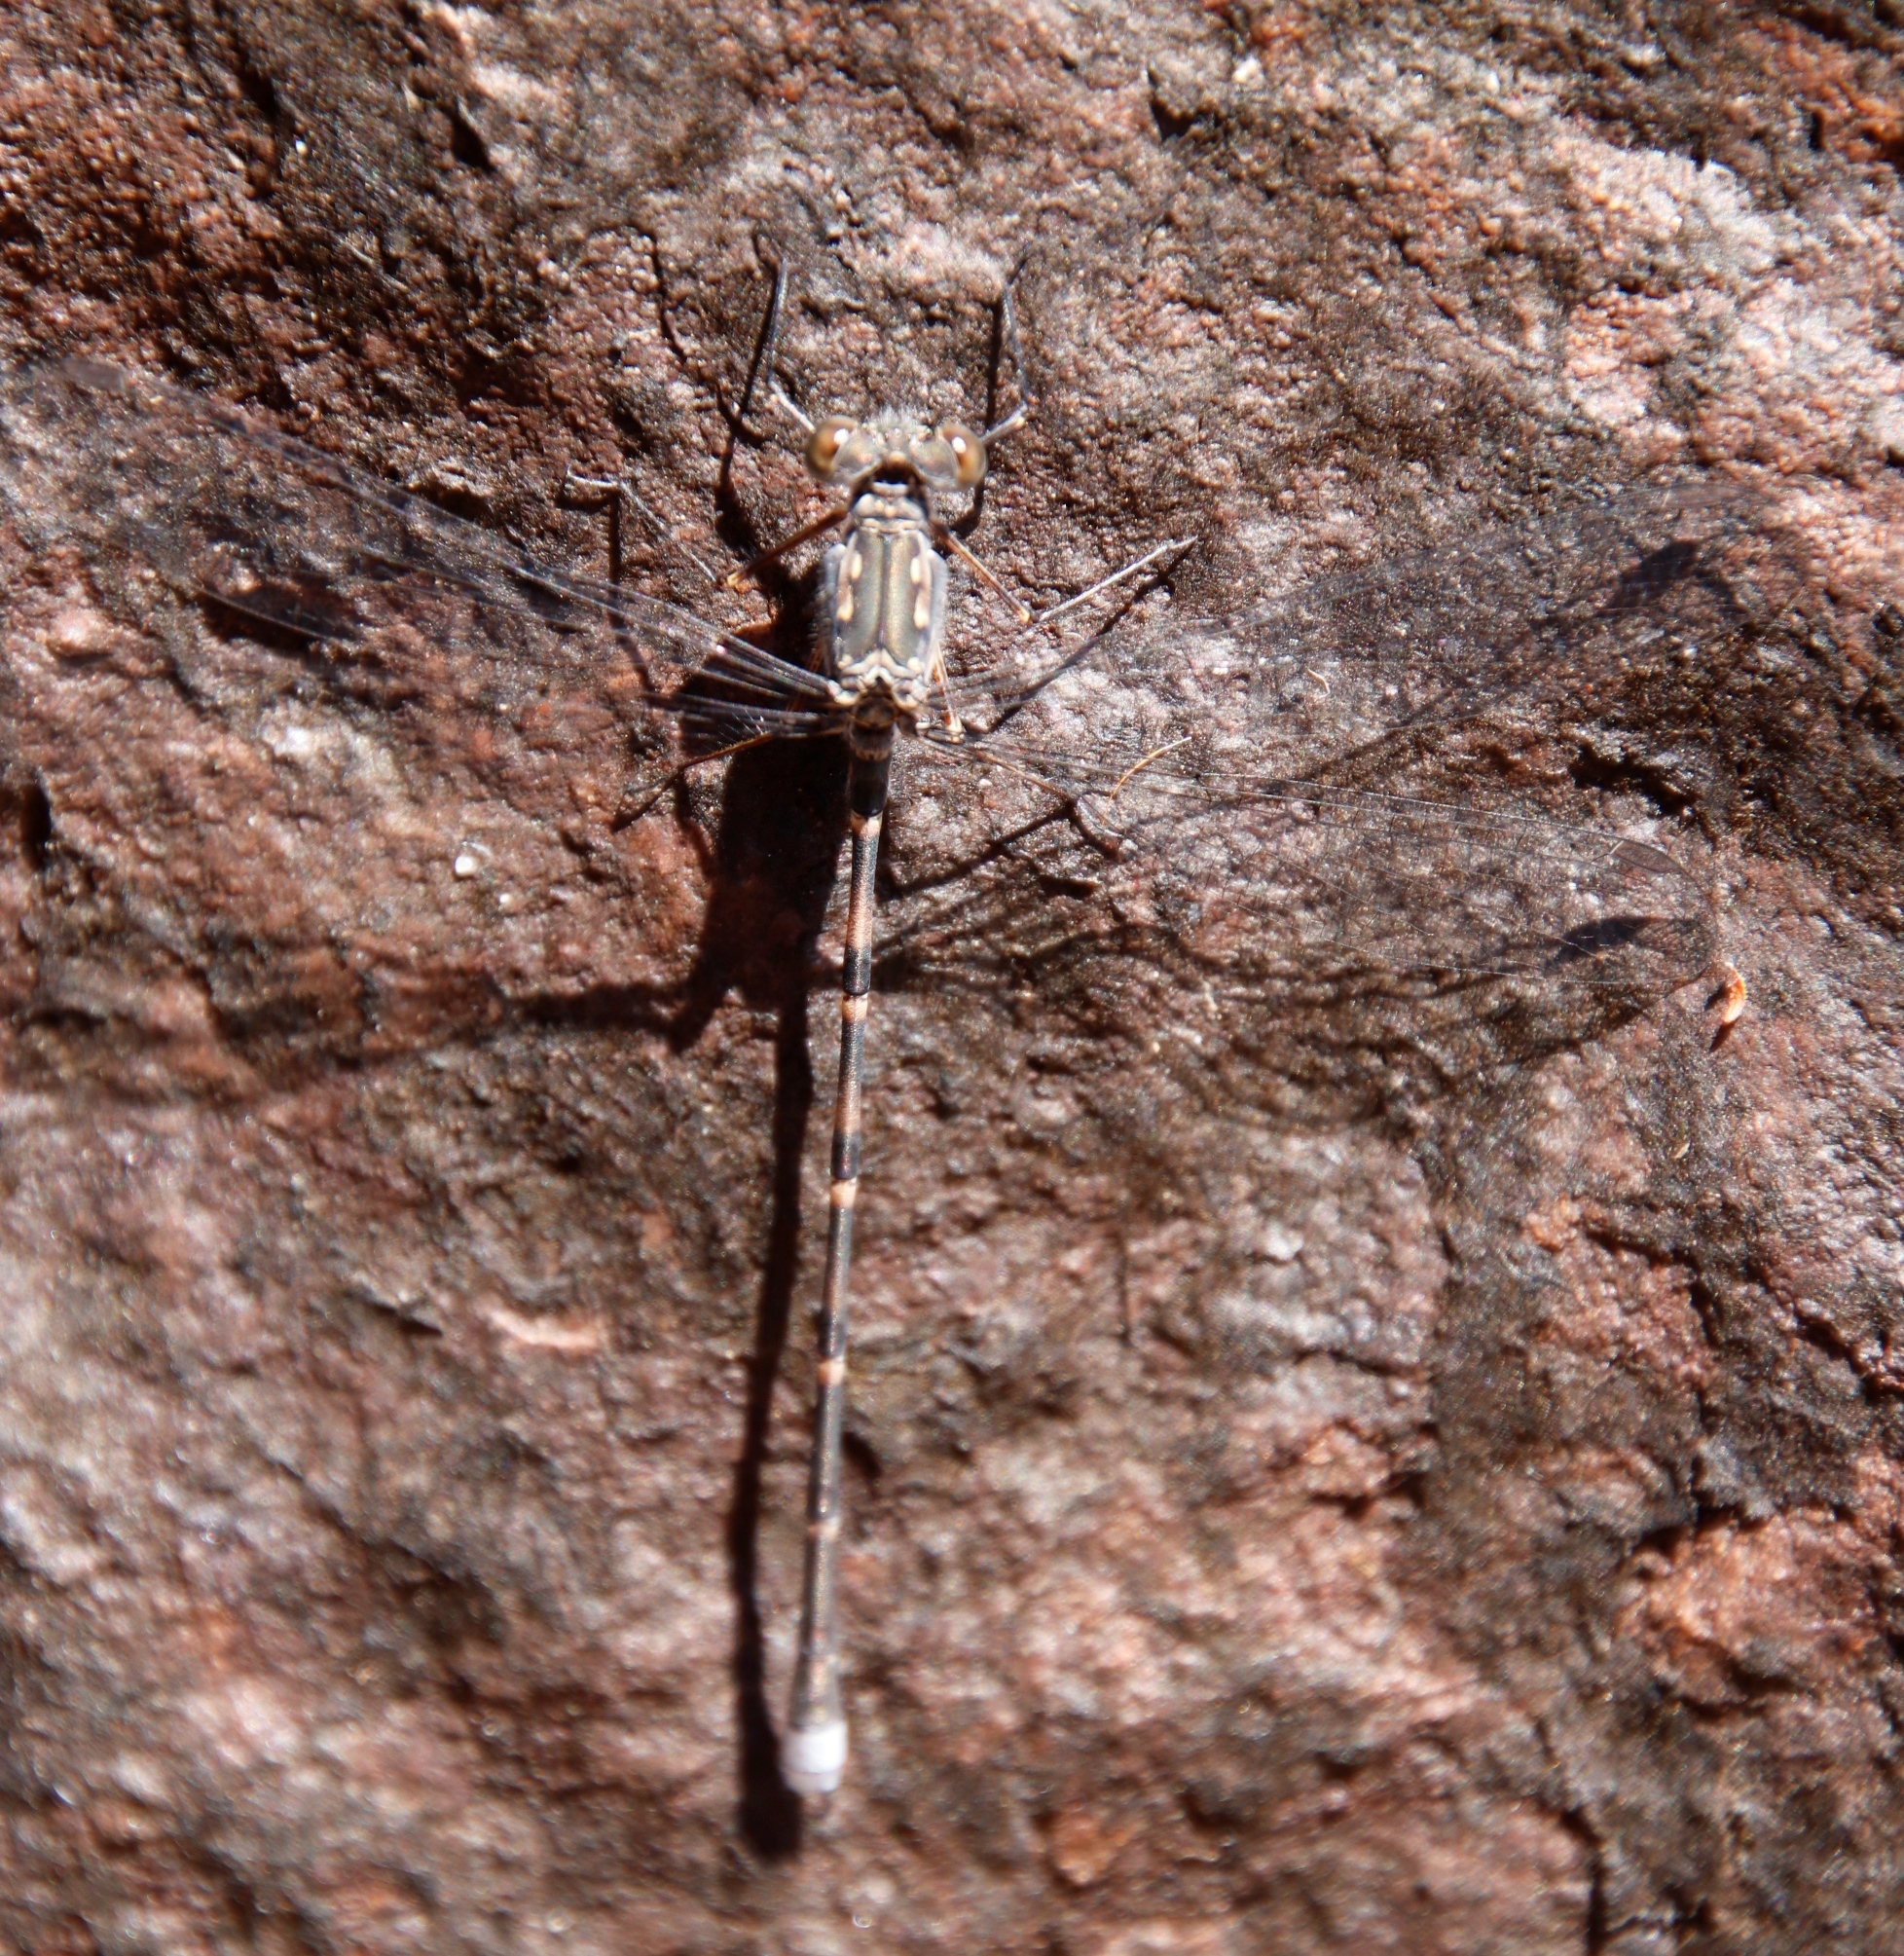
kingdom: Animalia
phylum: Arthropoda
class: Insecta
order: Odonata
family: Synlestidae
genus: Ecchlorolestes
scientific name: Ecchlorolestes peringueyi
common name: Marbled malachite
